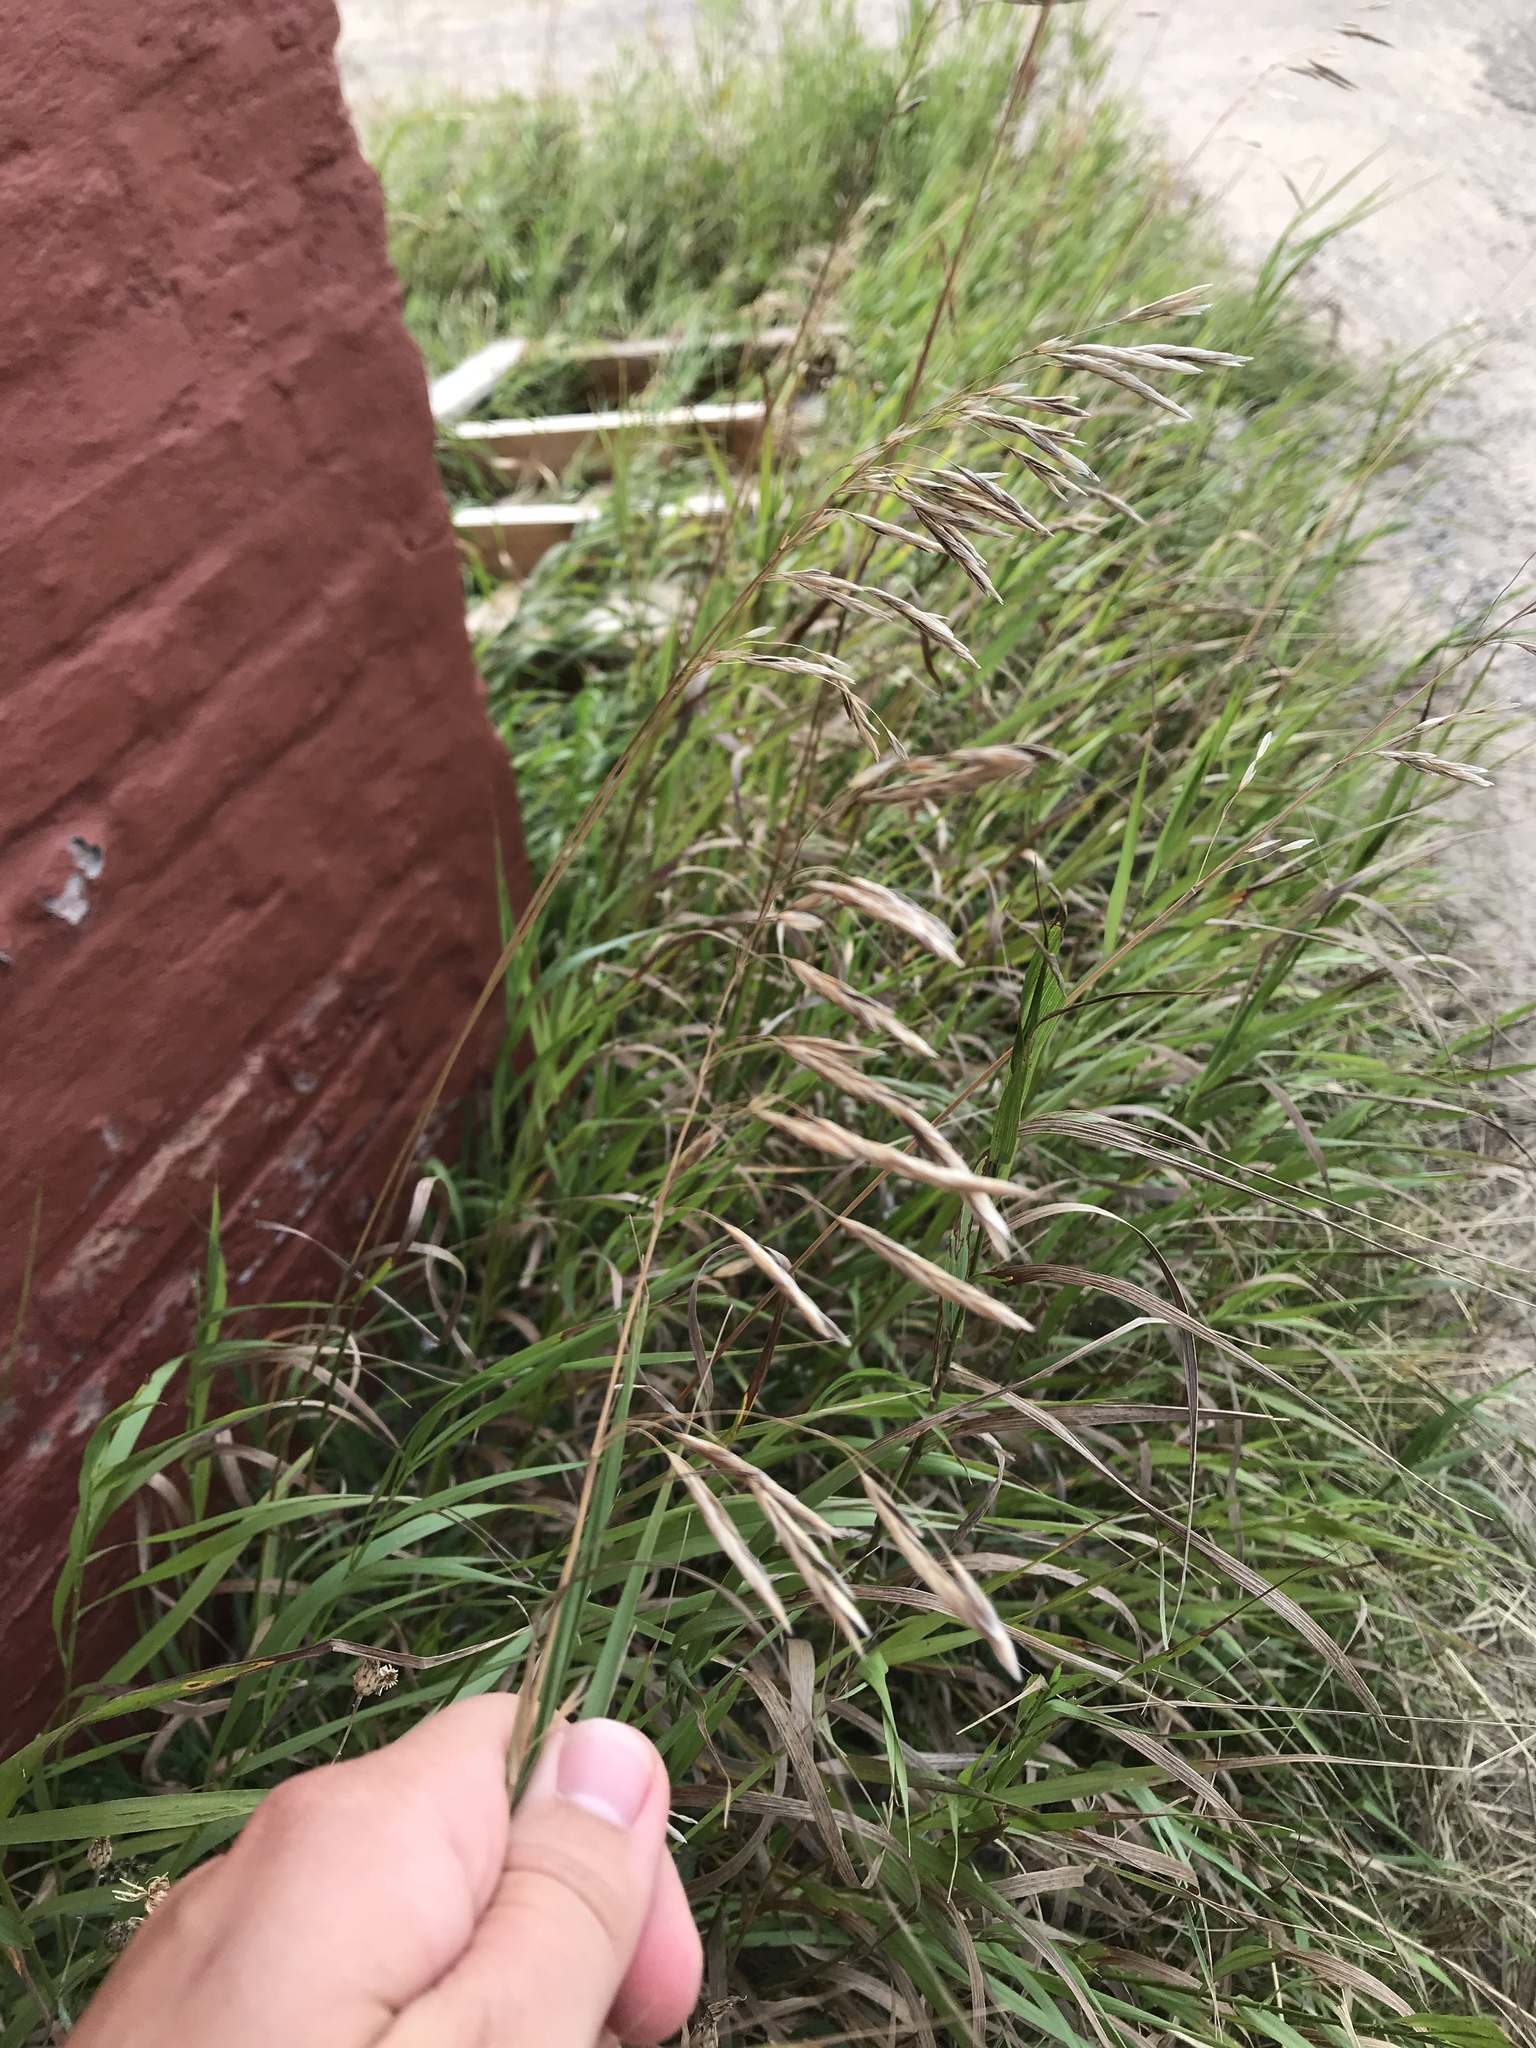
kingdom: Plantae
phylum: Tracheophyta
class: Liliopsida
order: Poales
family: Poaceae
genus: Bromus
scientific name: Bromus inermis
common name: Smooth brome
